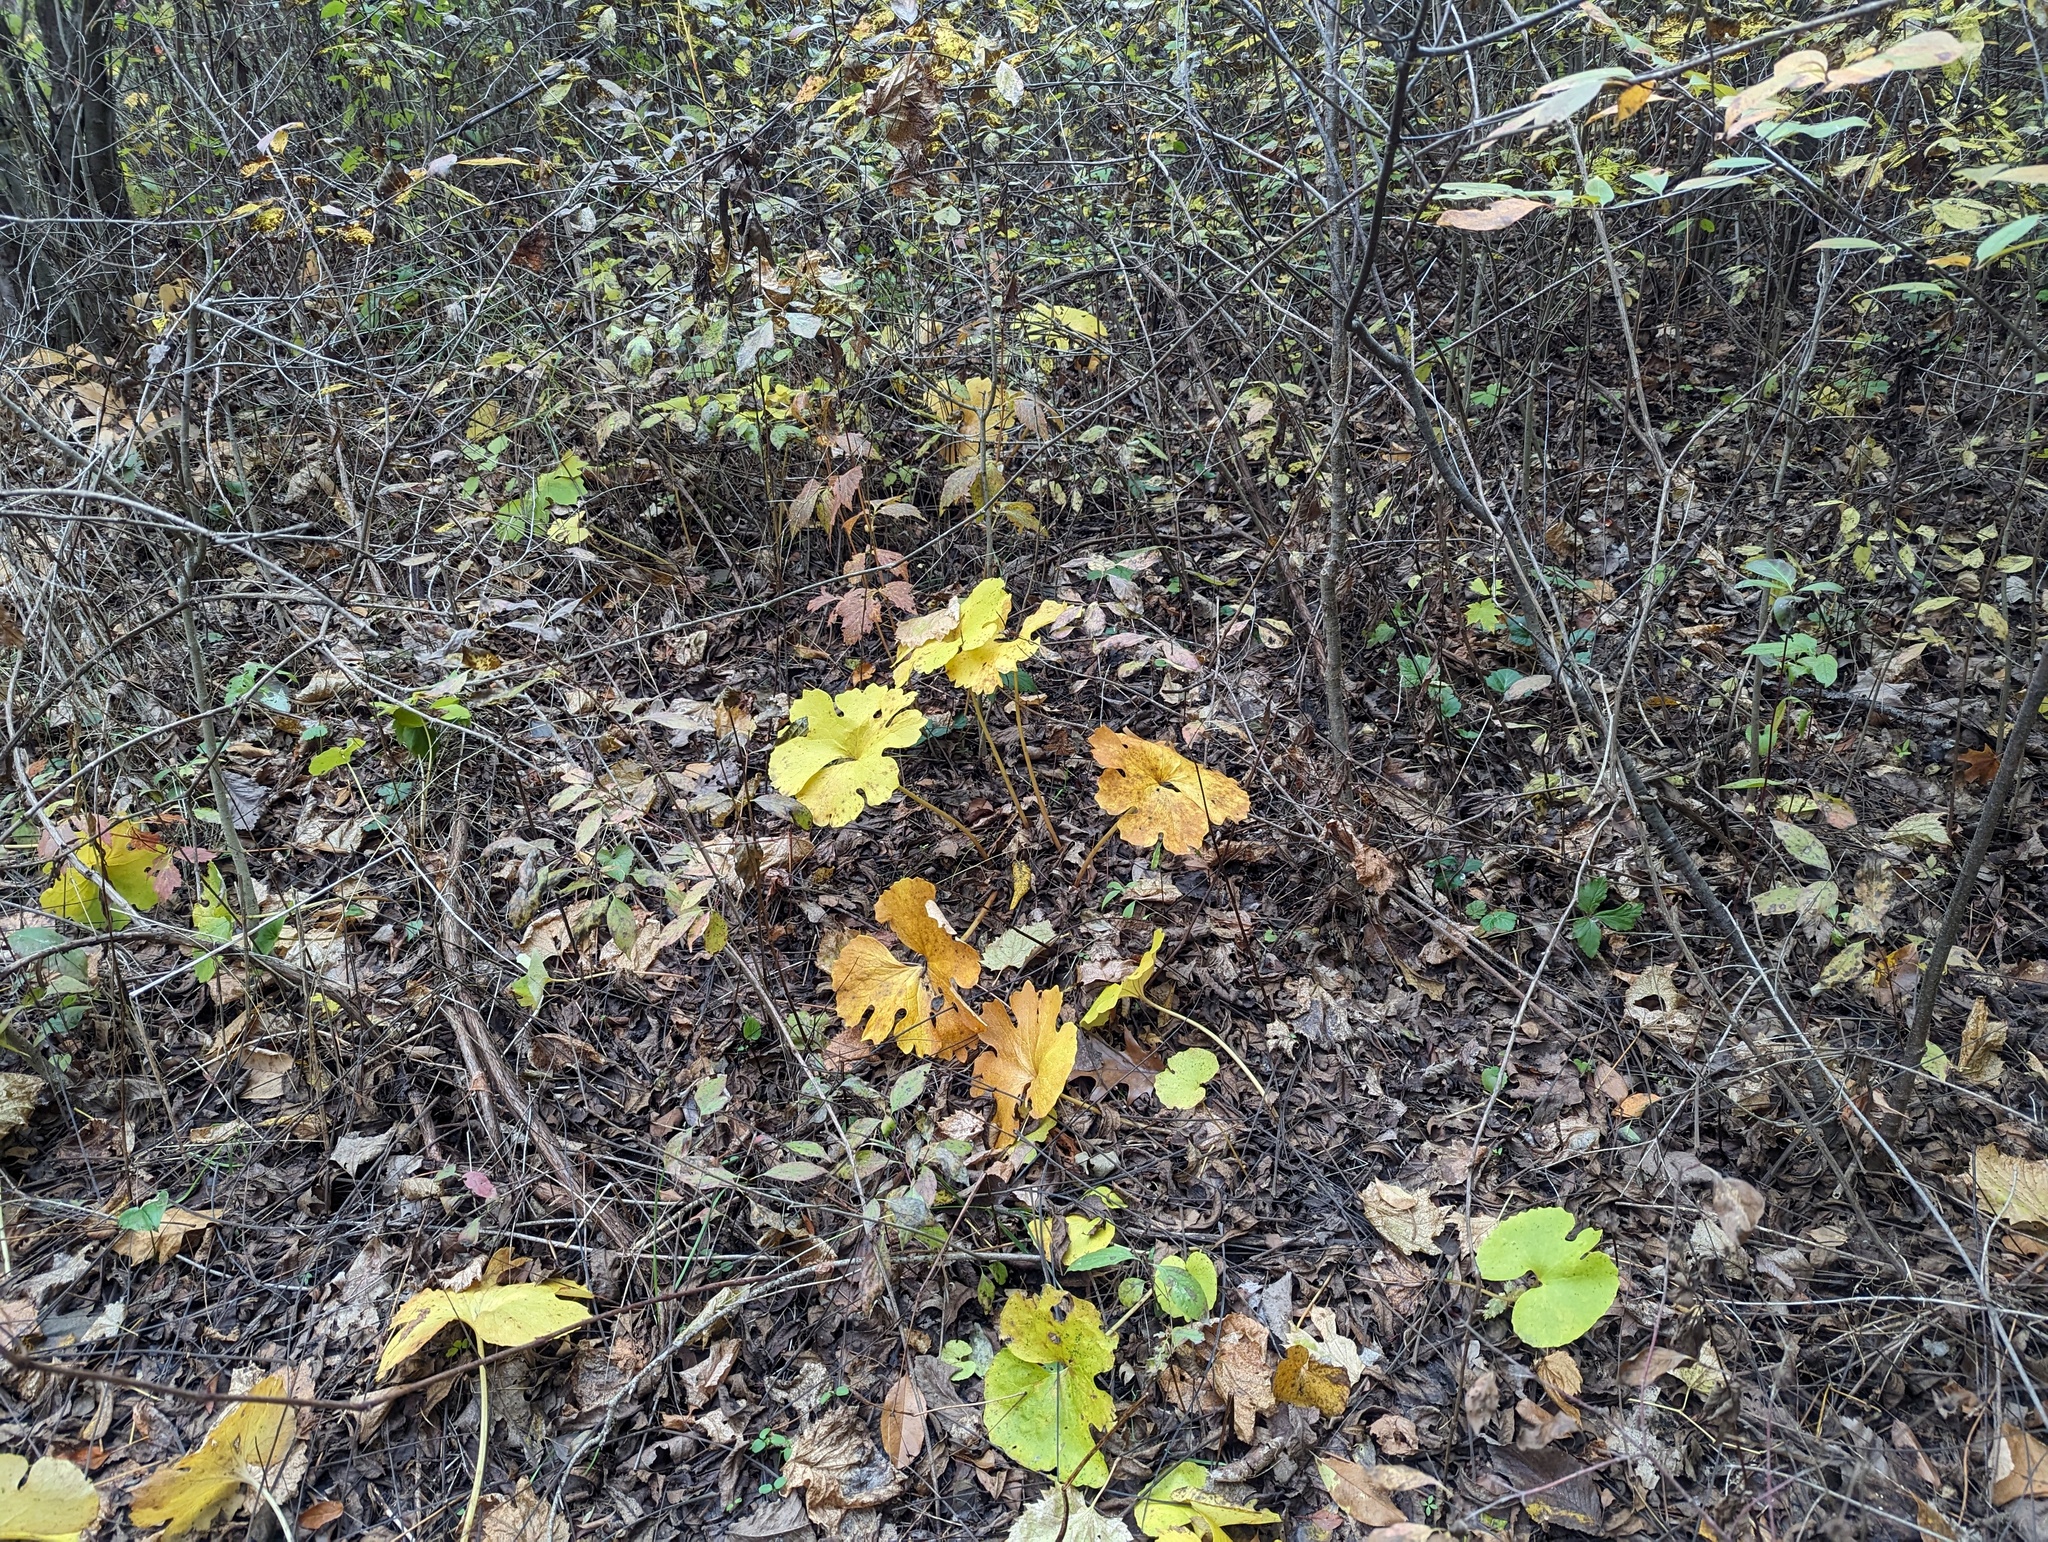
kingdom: Plantae
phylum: Tracheophyta
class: Magnoliopsida
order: Ranunculales
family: Papaveraceae
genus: Sanguinaria
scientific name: Sanguinaria canadensis
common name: Bloodroot
